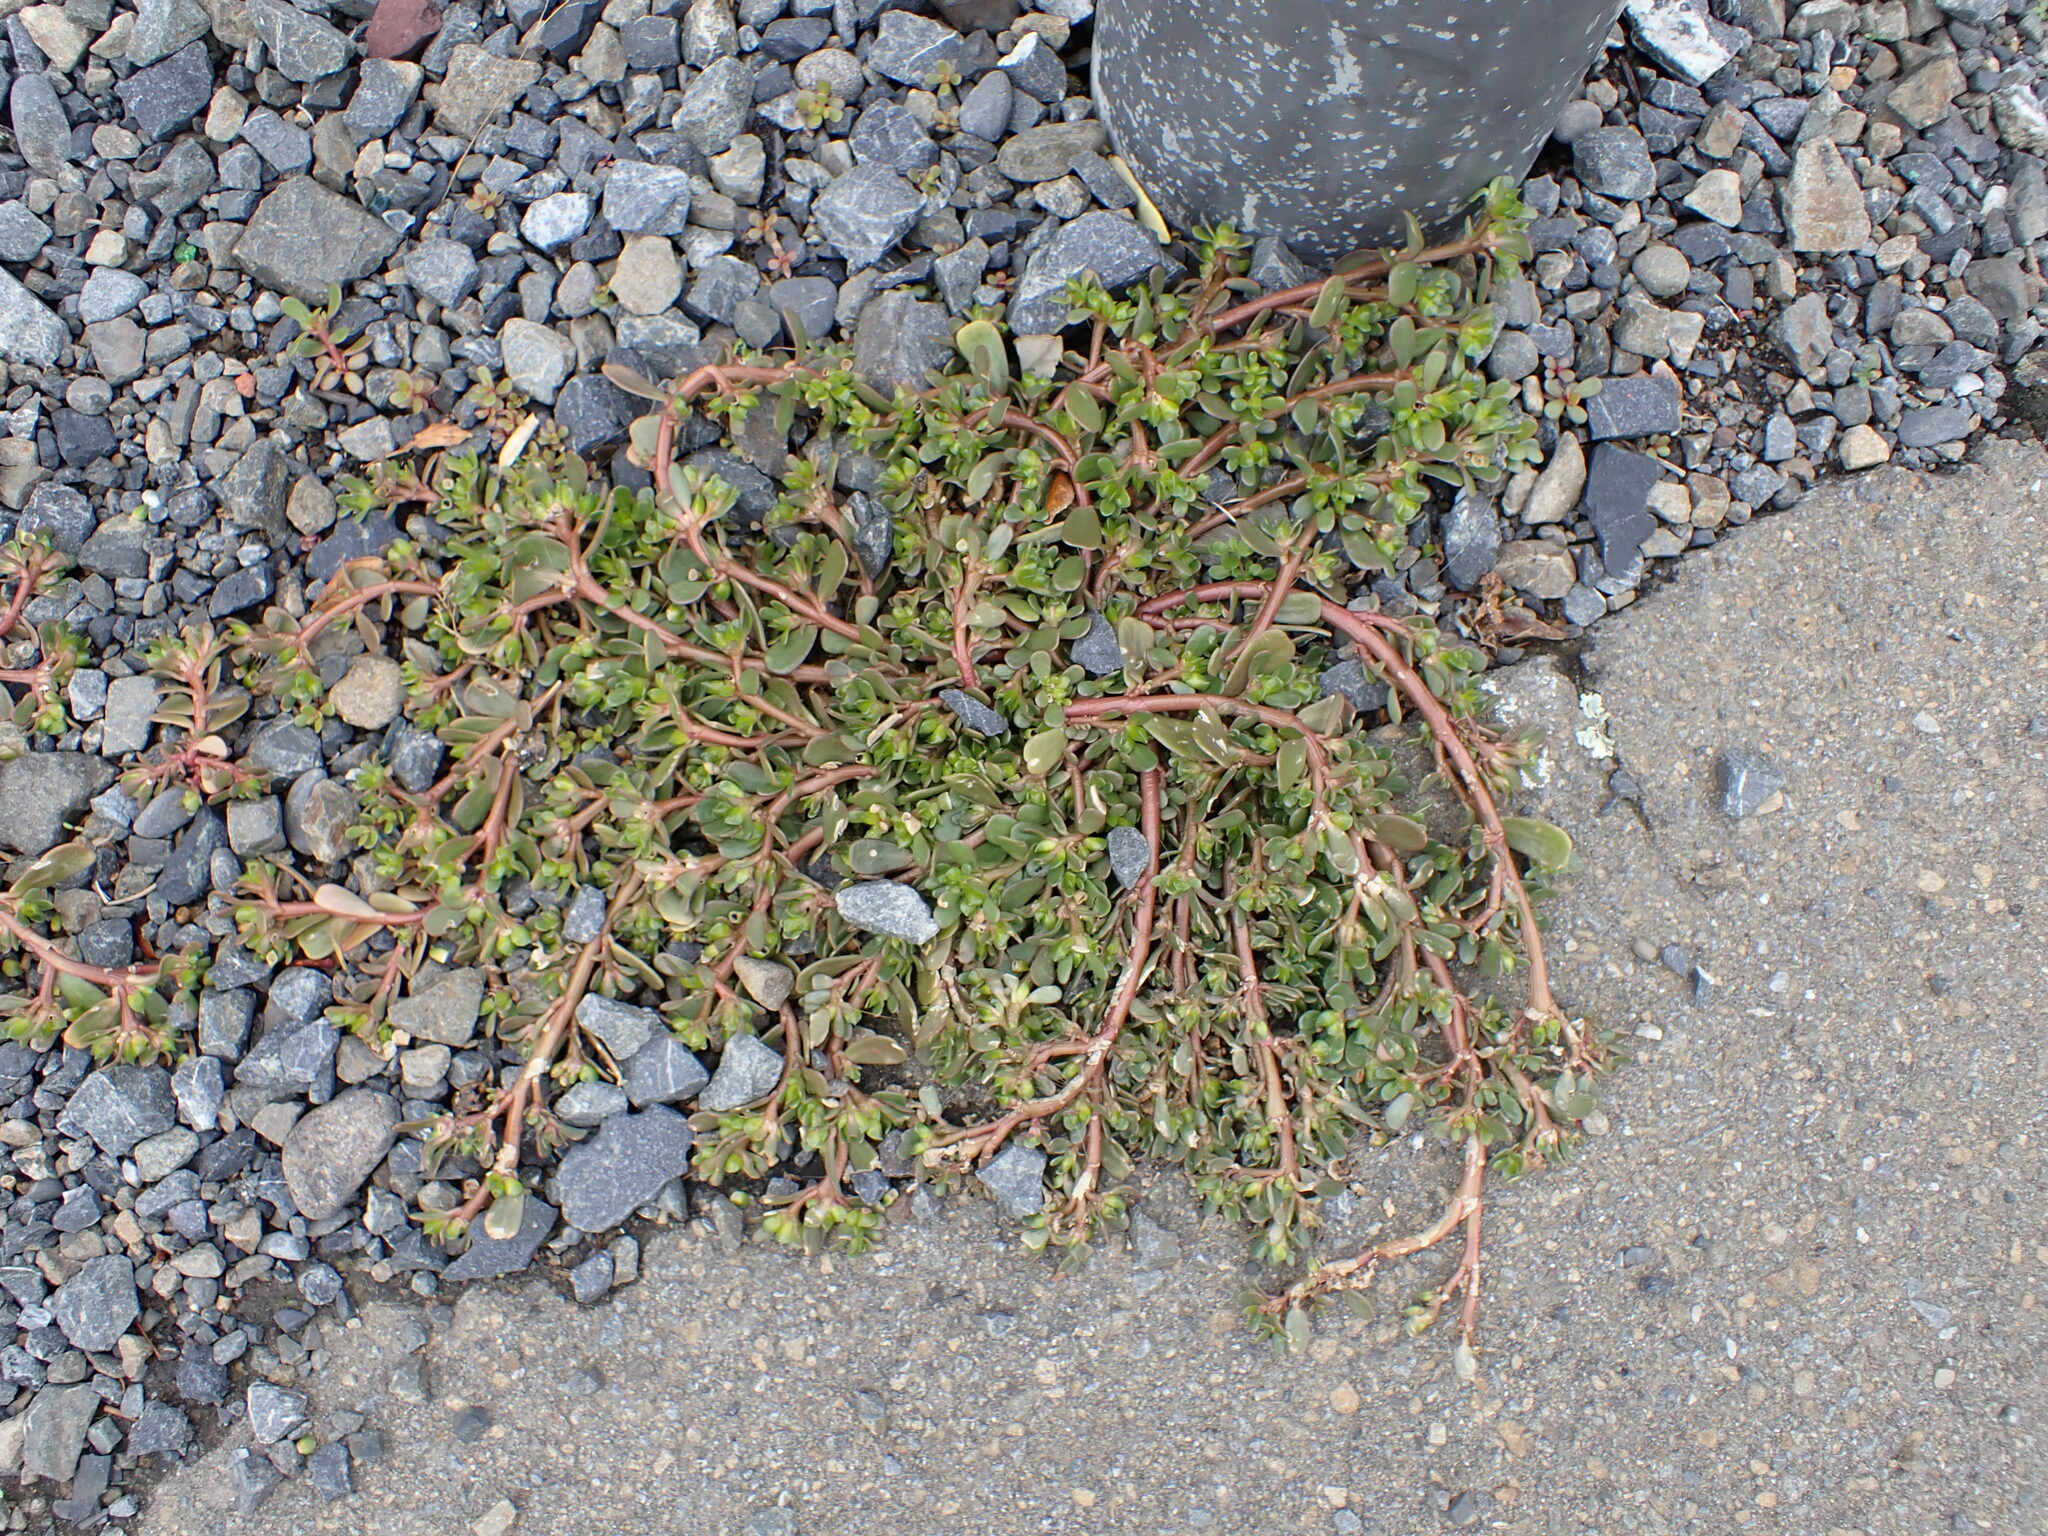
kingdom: Plantae
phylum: Tracheophyta
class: Magnoliopsida
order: Caryophyllales
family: Portulacaceae
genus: Portulaca
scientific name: Portulaca oleracea
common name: Common purslane
